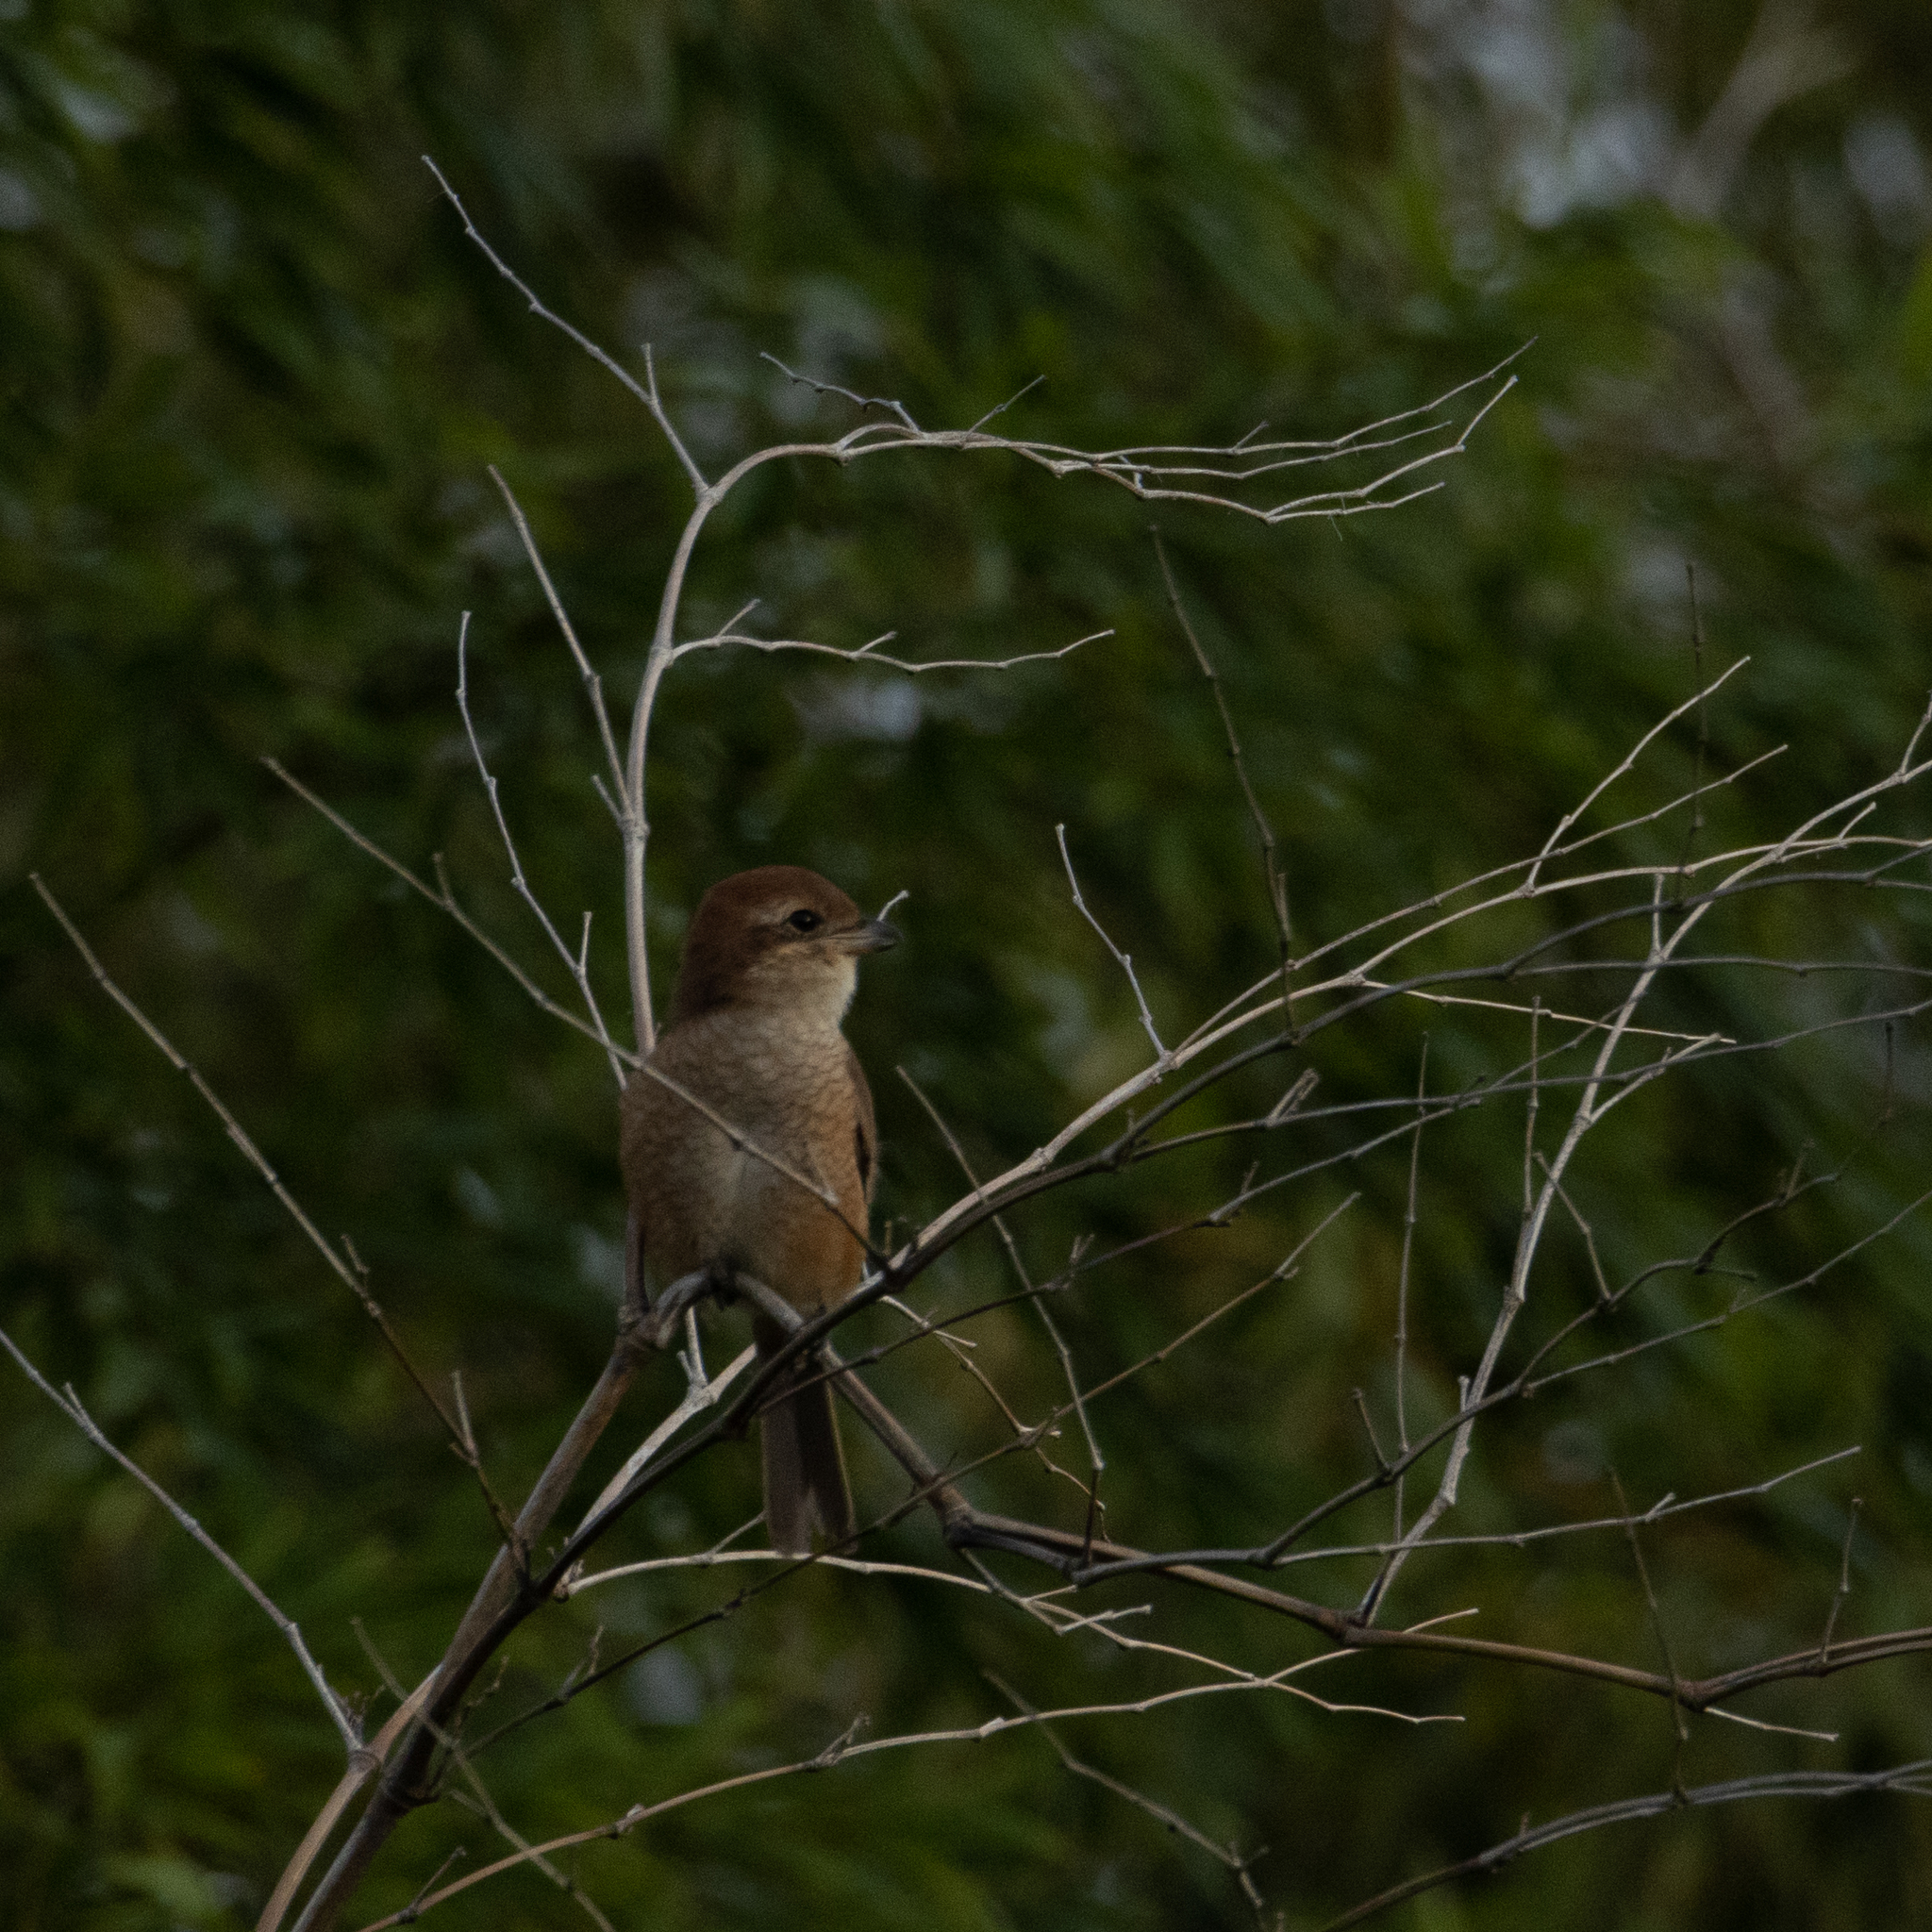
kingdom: Animalia
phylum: Chordata
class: Aves
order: Passeriformes
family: Laniidae
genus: Lanius
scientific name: Lanius bucephalus
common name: Bull-headed shrike
